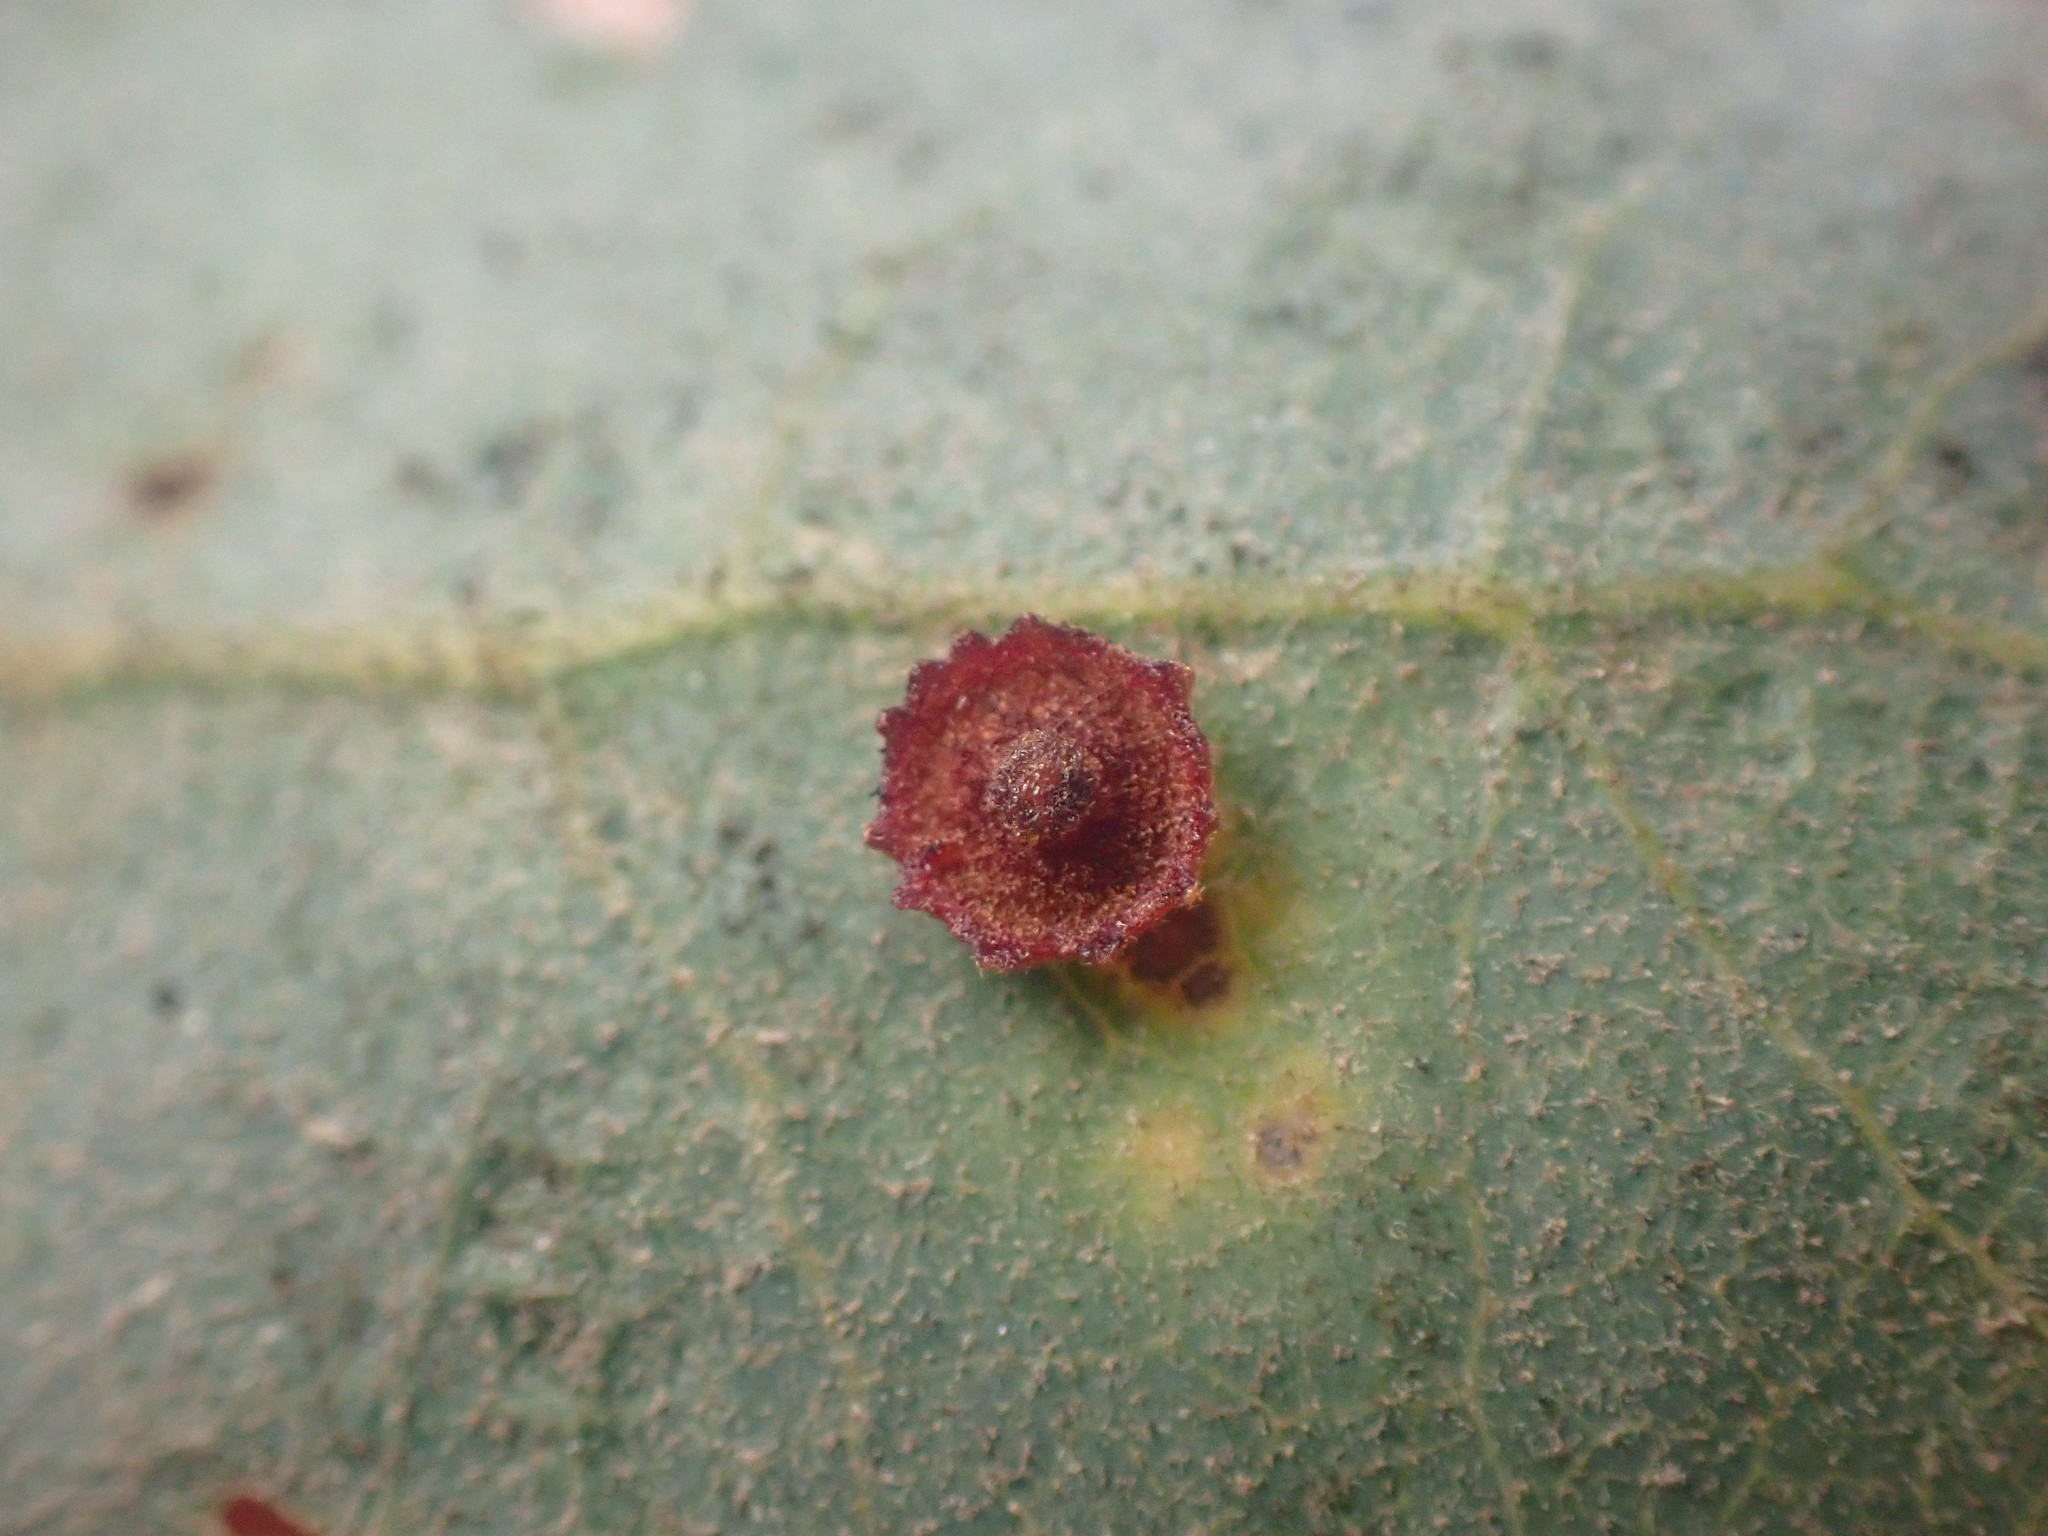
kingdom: Animalia
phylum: Arthropoda
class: Insecta
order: Hymenoptera
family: Cynipidae
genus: Andricus
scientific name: Andricus
